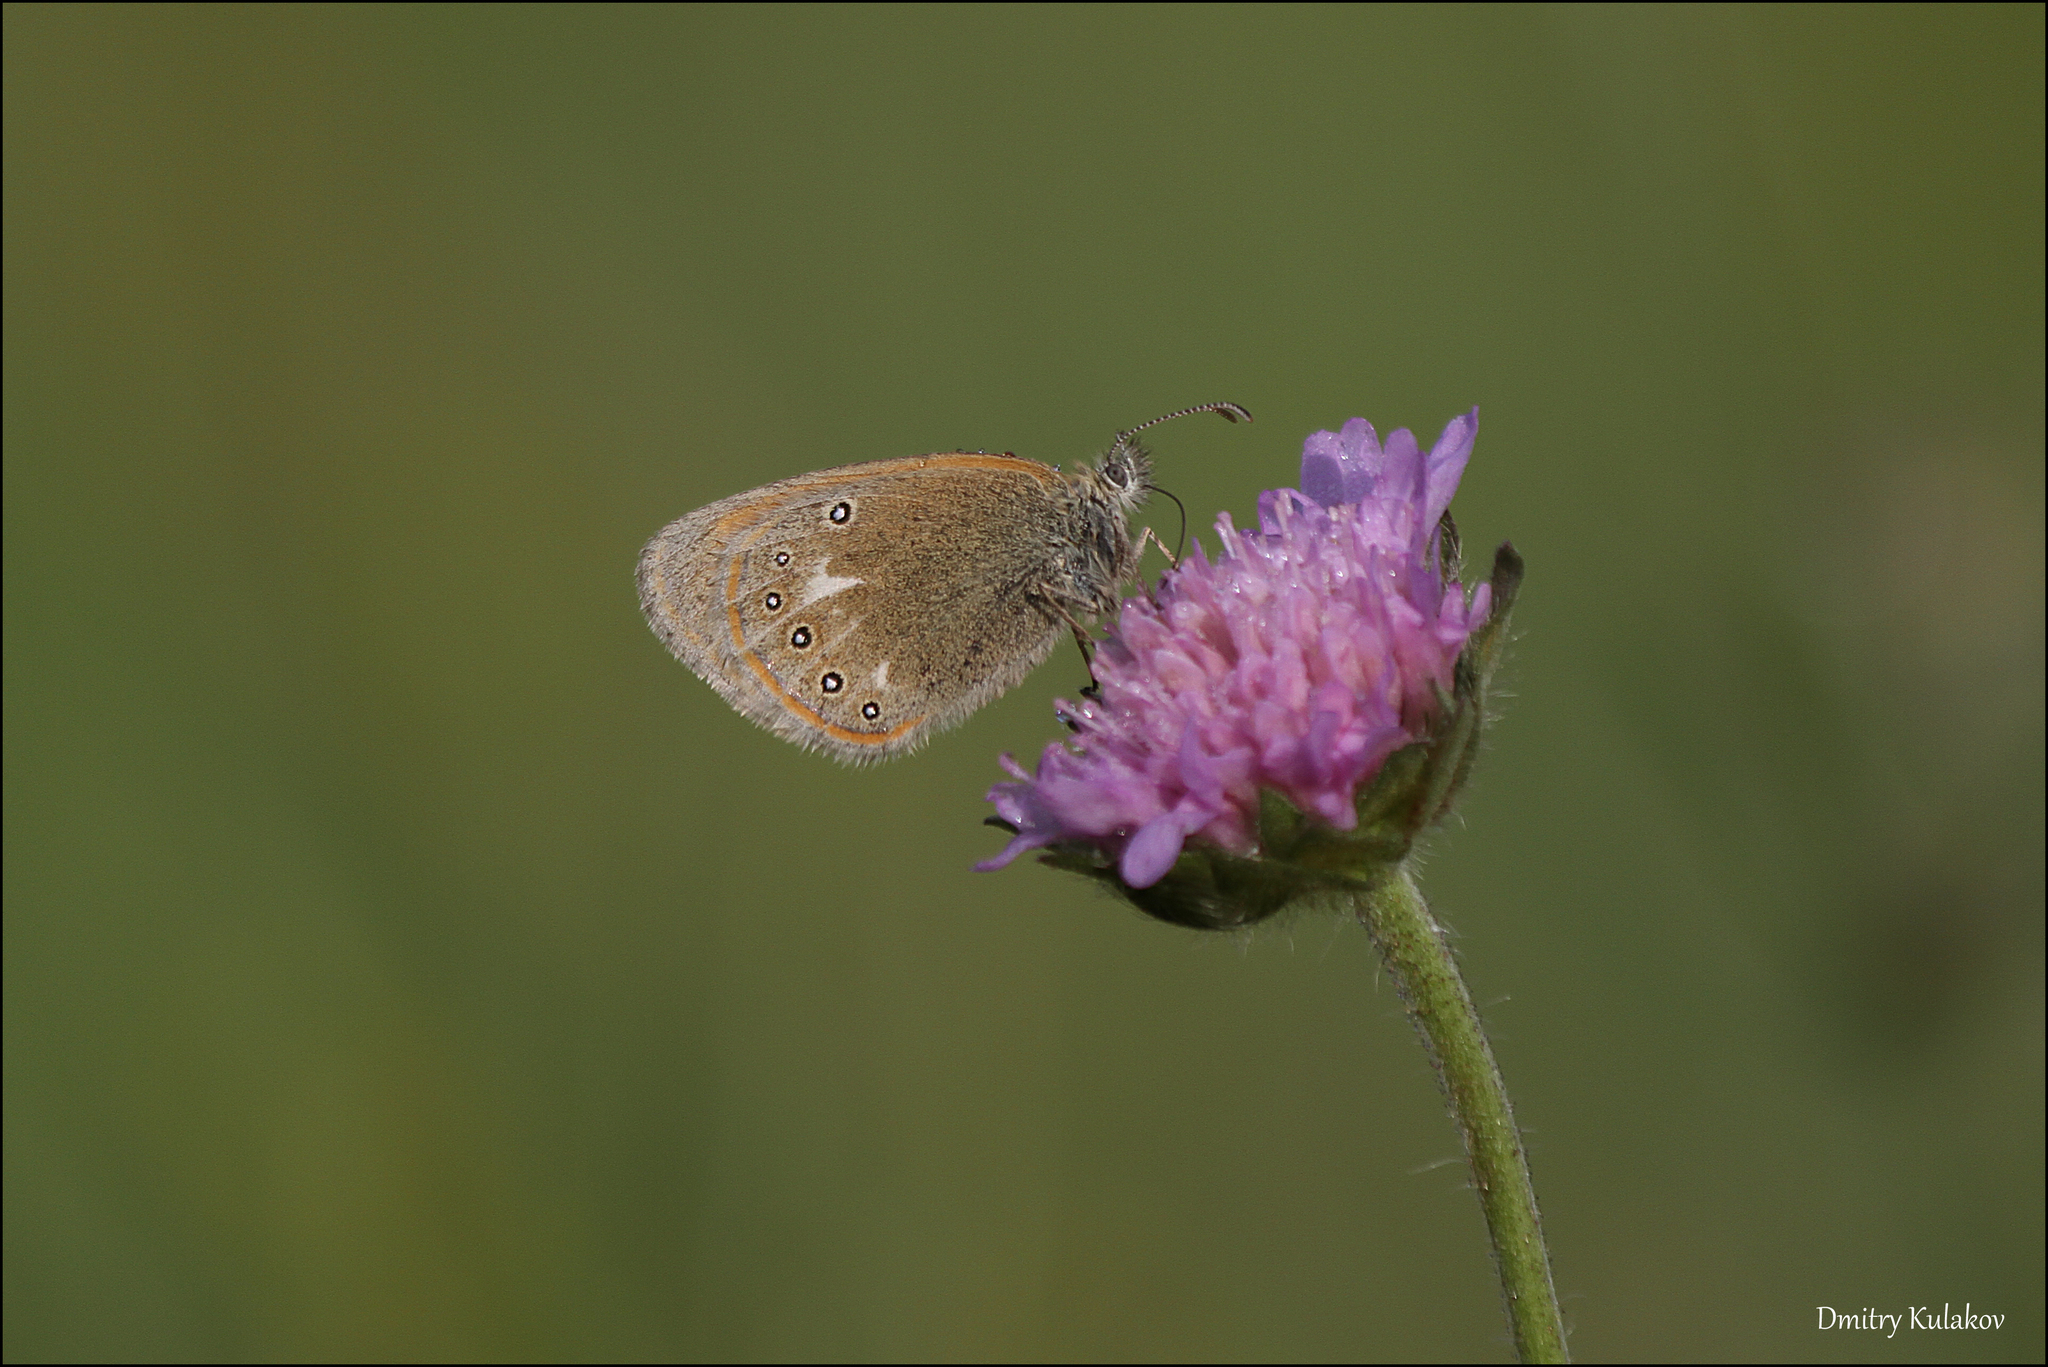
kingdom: Animalia
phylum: Arthropoda
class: Insecta
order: Lepidoptera
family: Nymphalidae
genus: Coenonympha
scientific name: Coenonympha iphis
